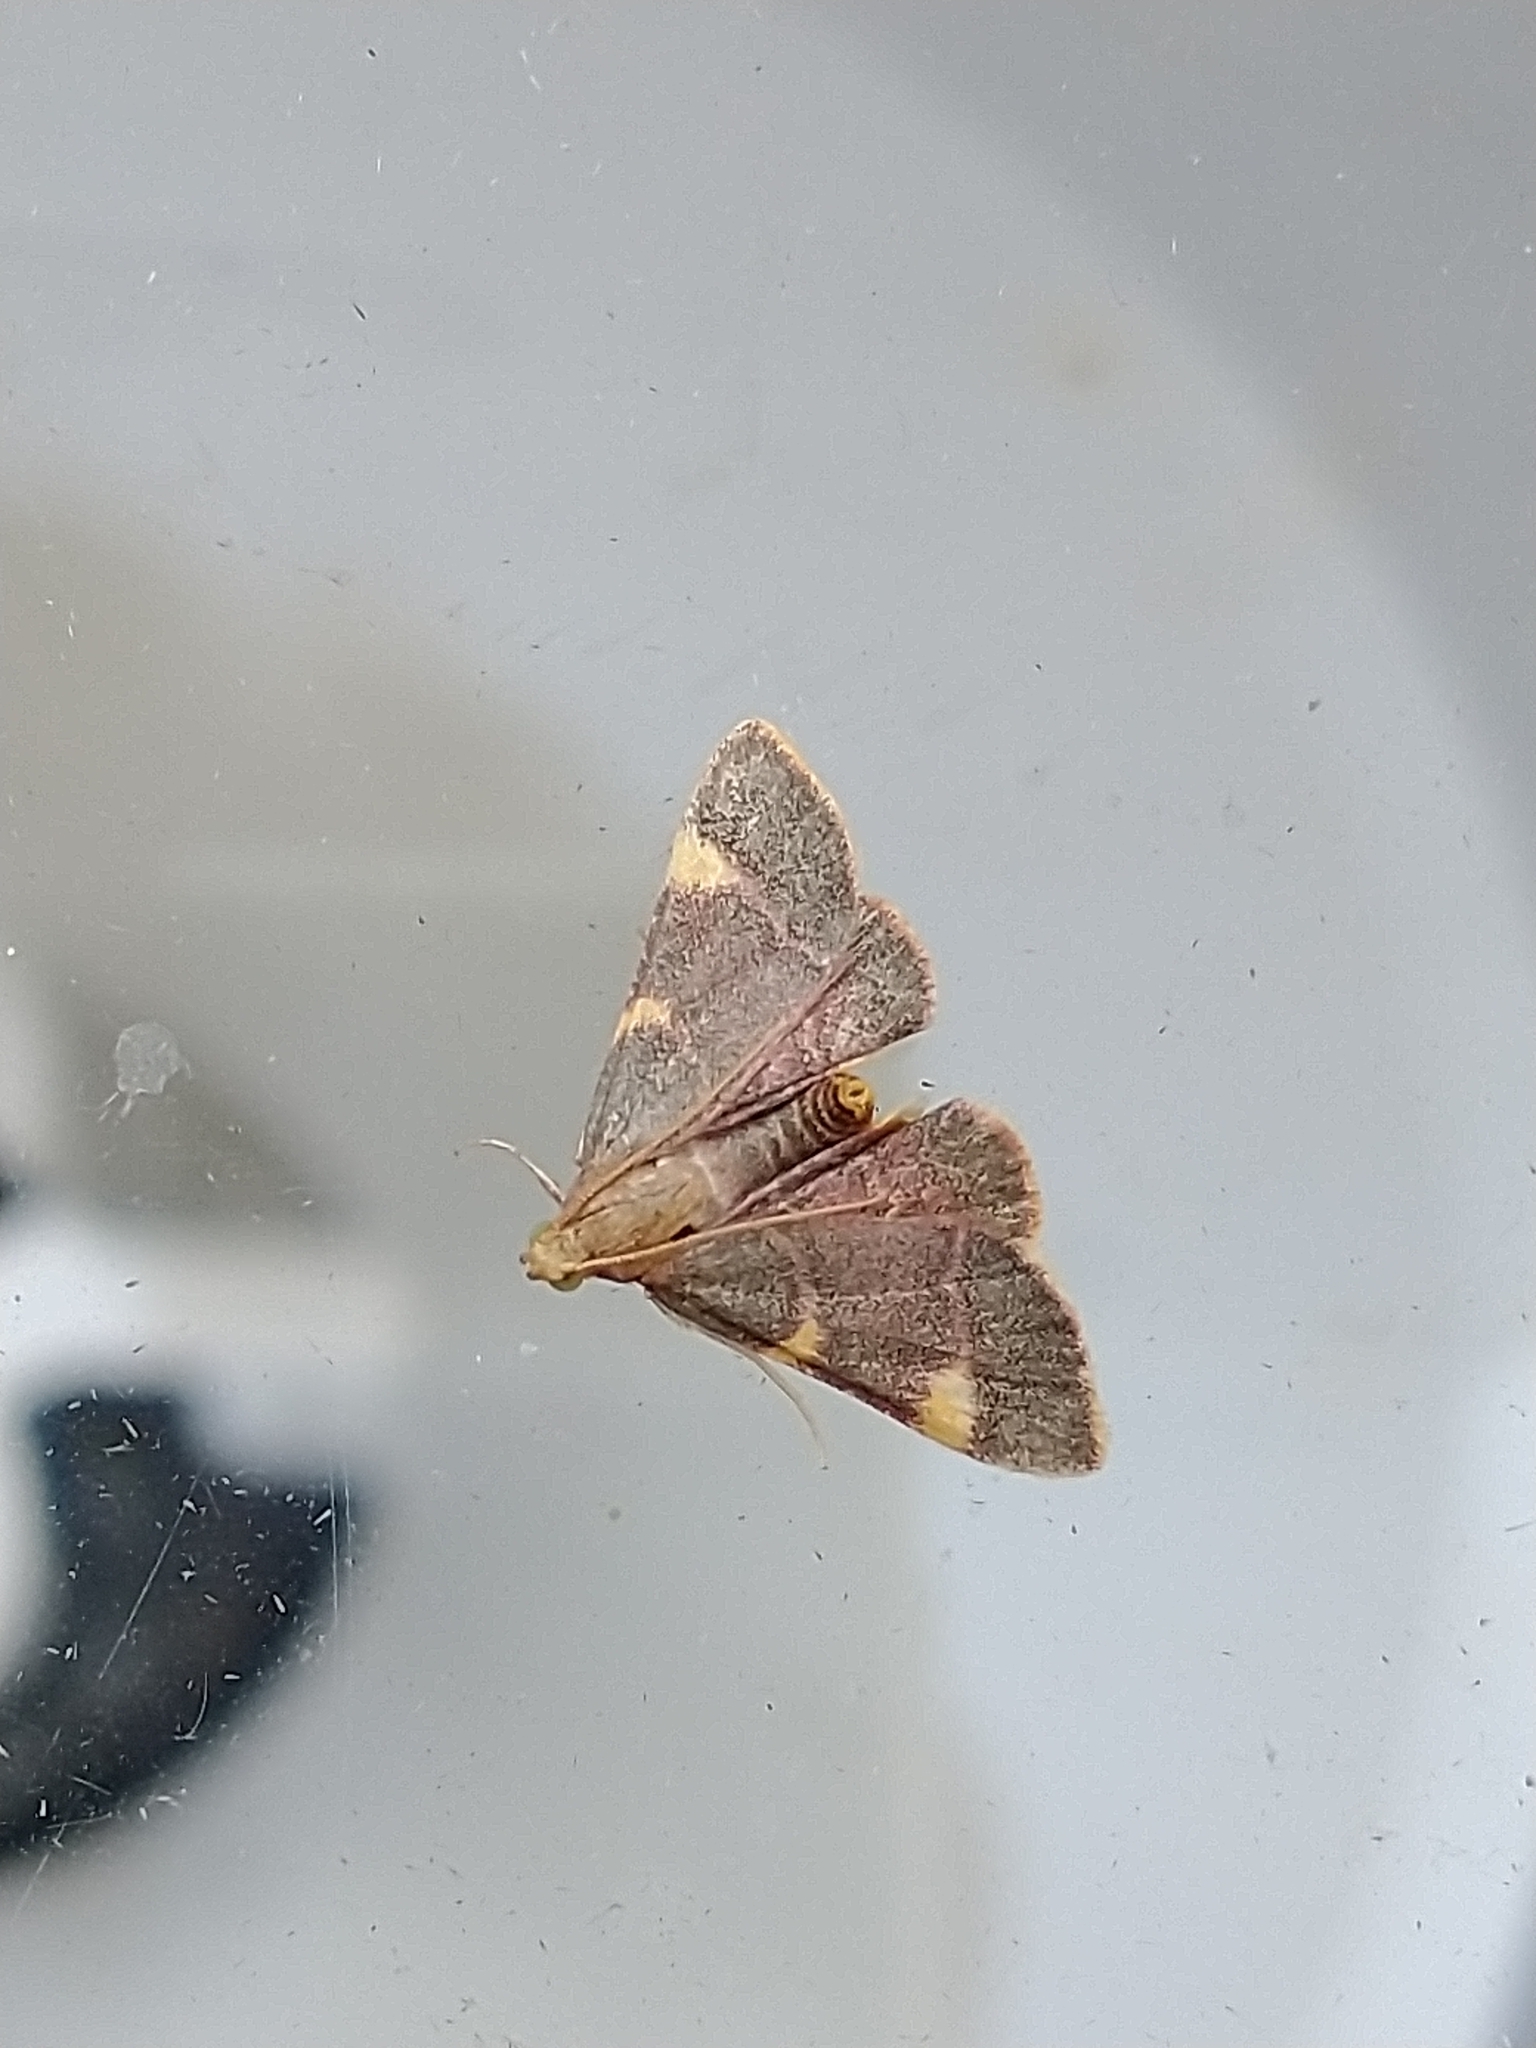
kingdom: Animalia
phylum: Arthropoda
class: Insecta
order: Lepidoptera
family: Pyralidae
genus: Hypsopygia
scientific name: Hypsopygia costalis
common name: Gold triangle
